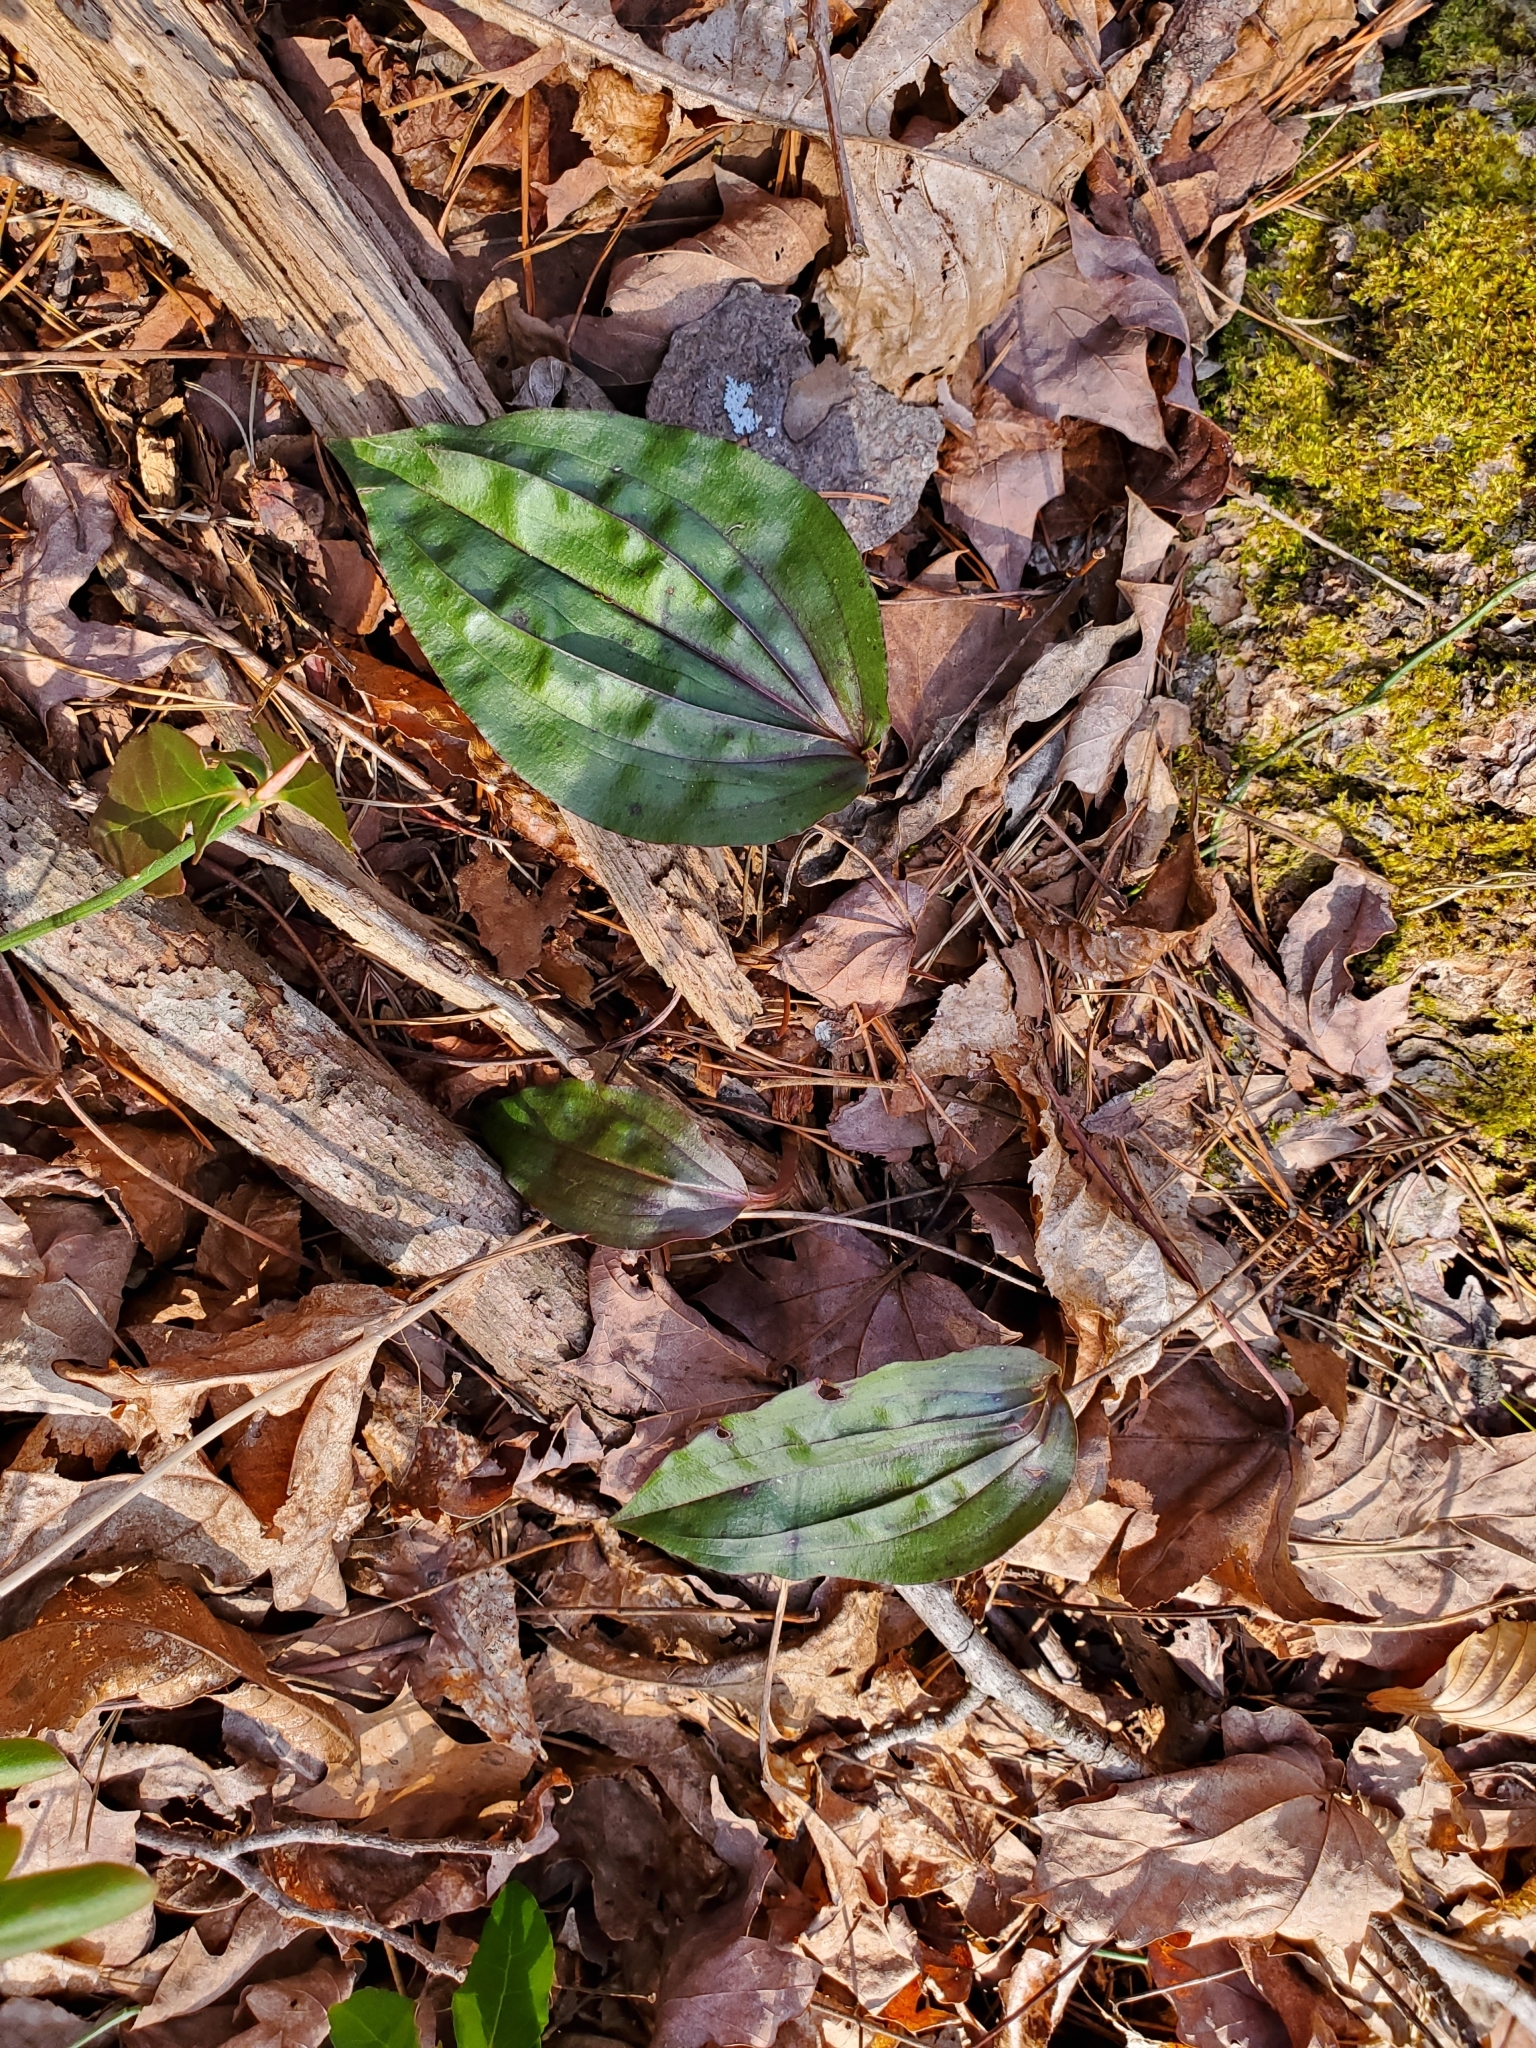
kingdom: Plantae
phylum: Tracheophyta
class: Liliopsida
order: Asparagales
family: Orchidaceae
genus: Tipularia
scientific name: Tipularia discolor
